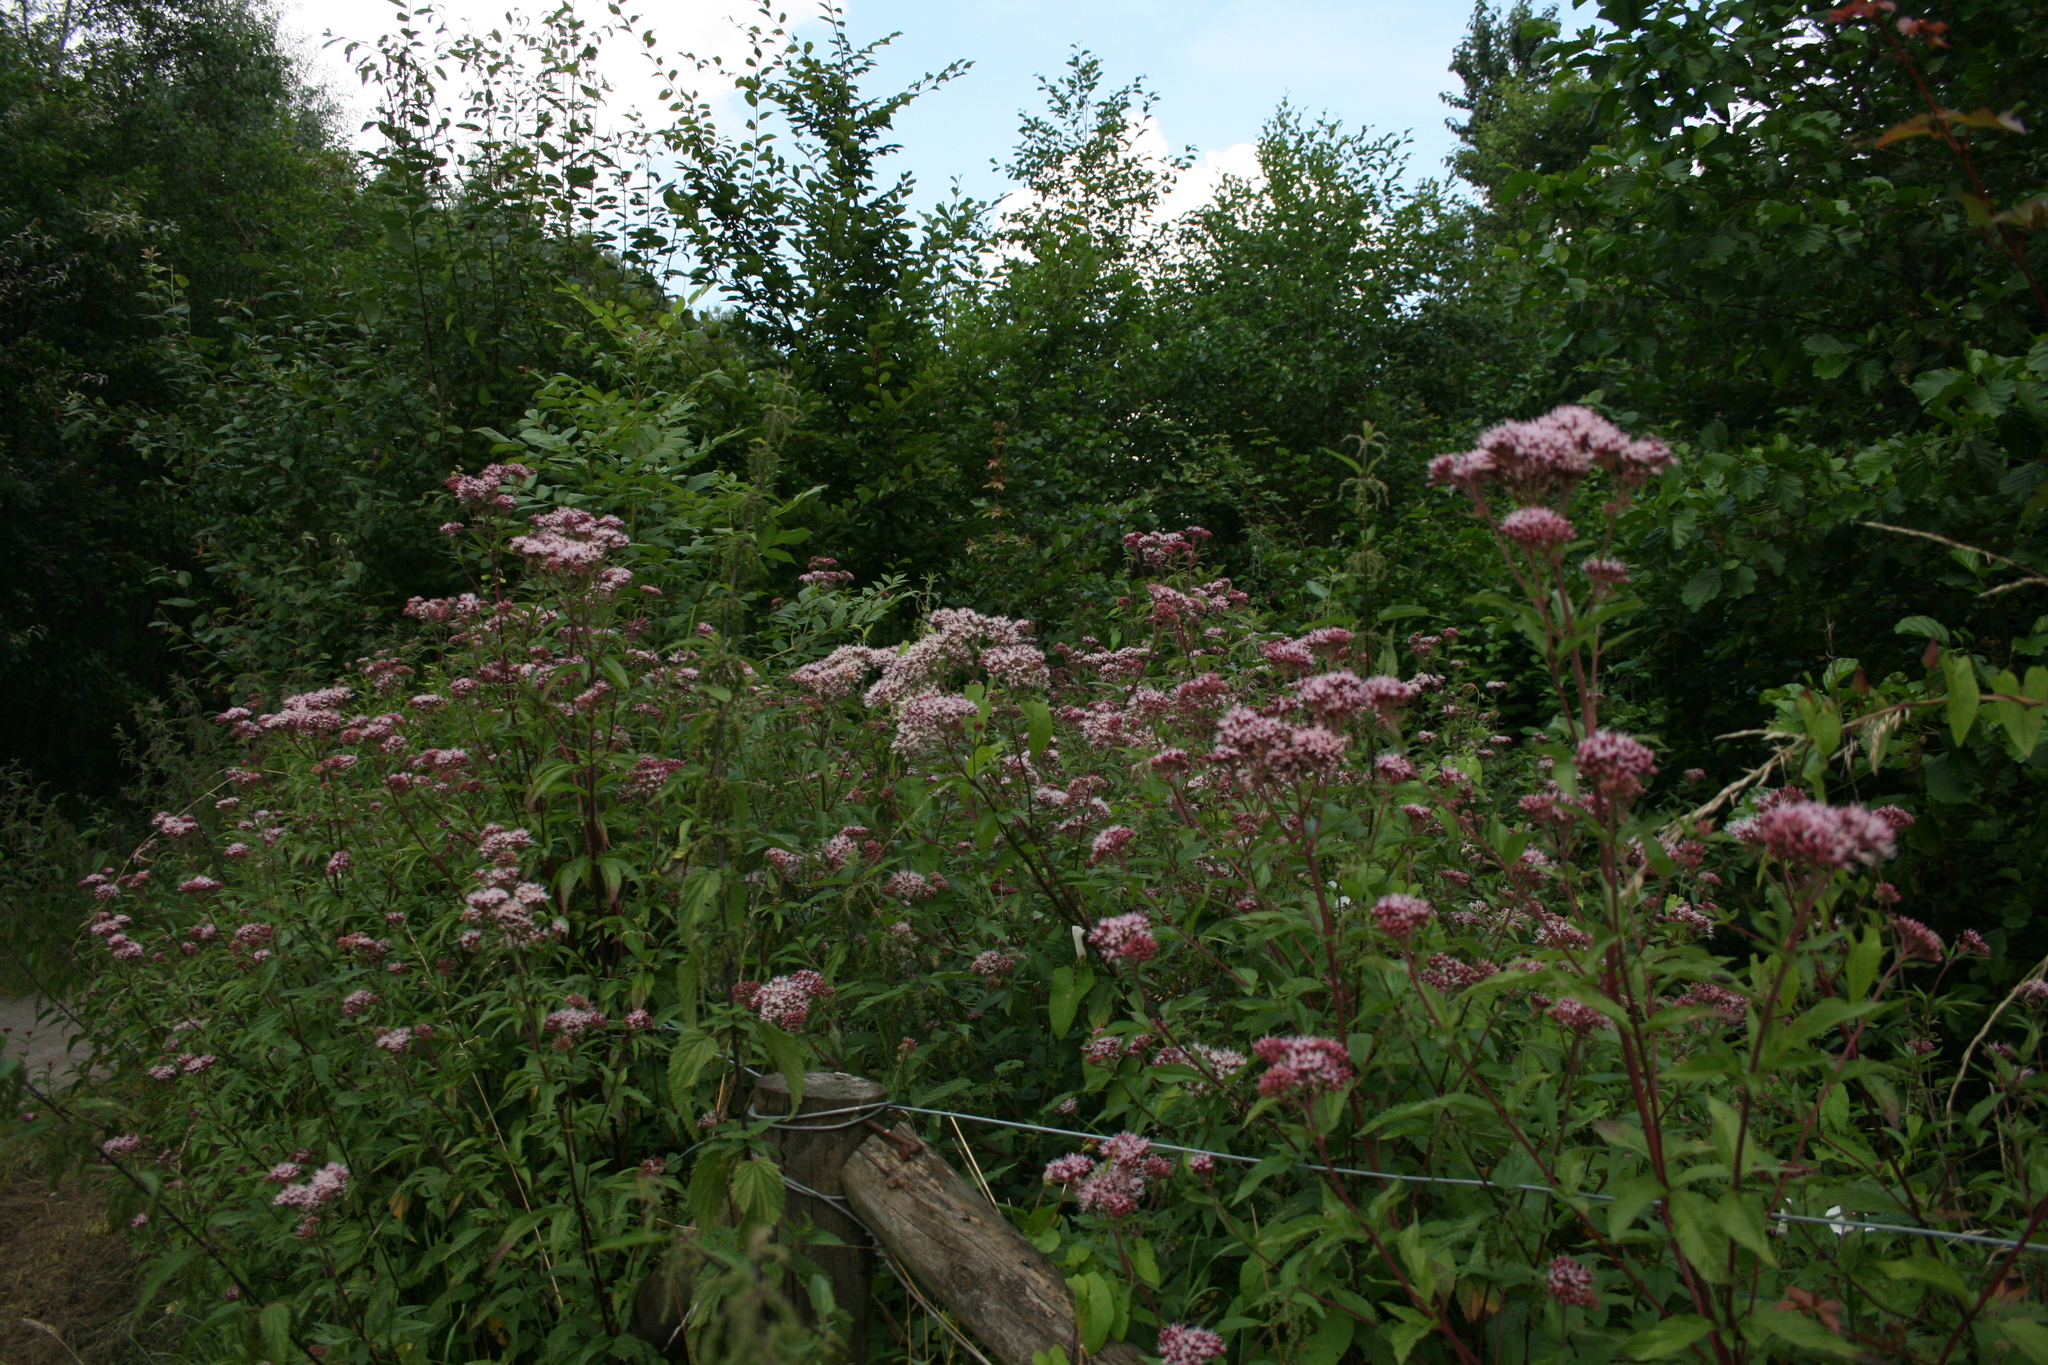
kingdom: Plantae
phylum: Tracheophyta
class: Magnoliopsida
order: Asterales
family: Asteraceae
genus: Eupatorium
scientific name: Eupatorium cannabinum
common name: Hemp-agrimony
